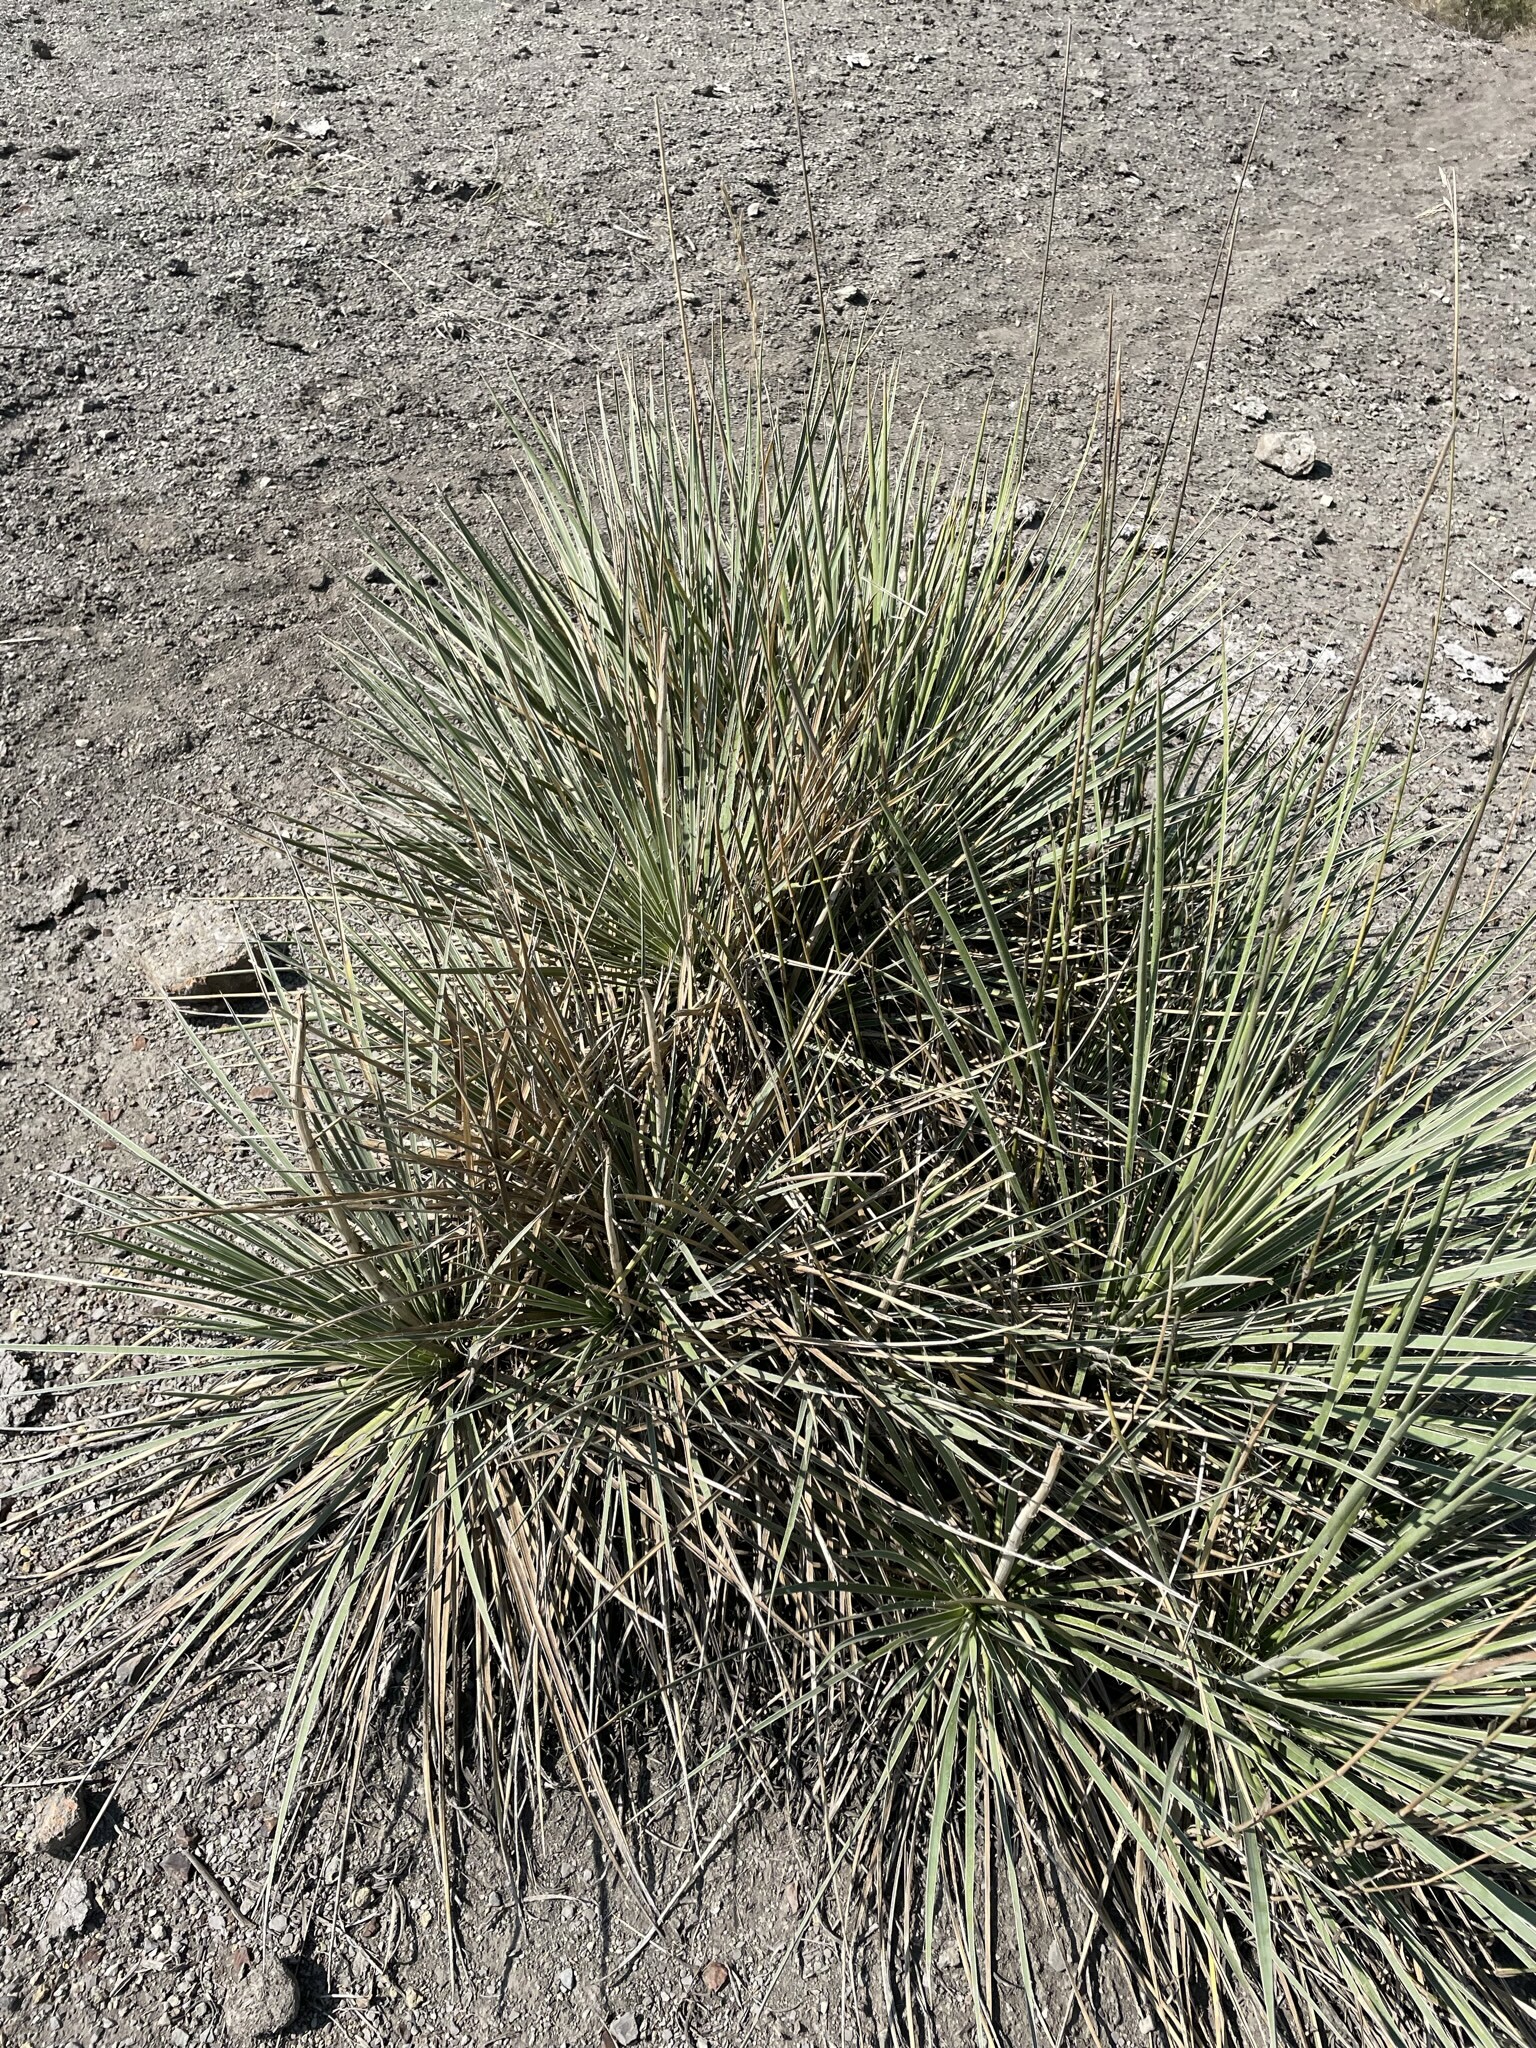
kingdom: Plantae
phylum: Tracheophyta
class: Liliopsida
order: Asparagales
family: Asparagaceae
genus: Yucca
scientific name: Yucca glauca
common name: Great plains yucca
